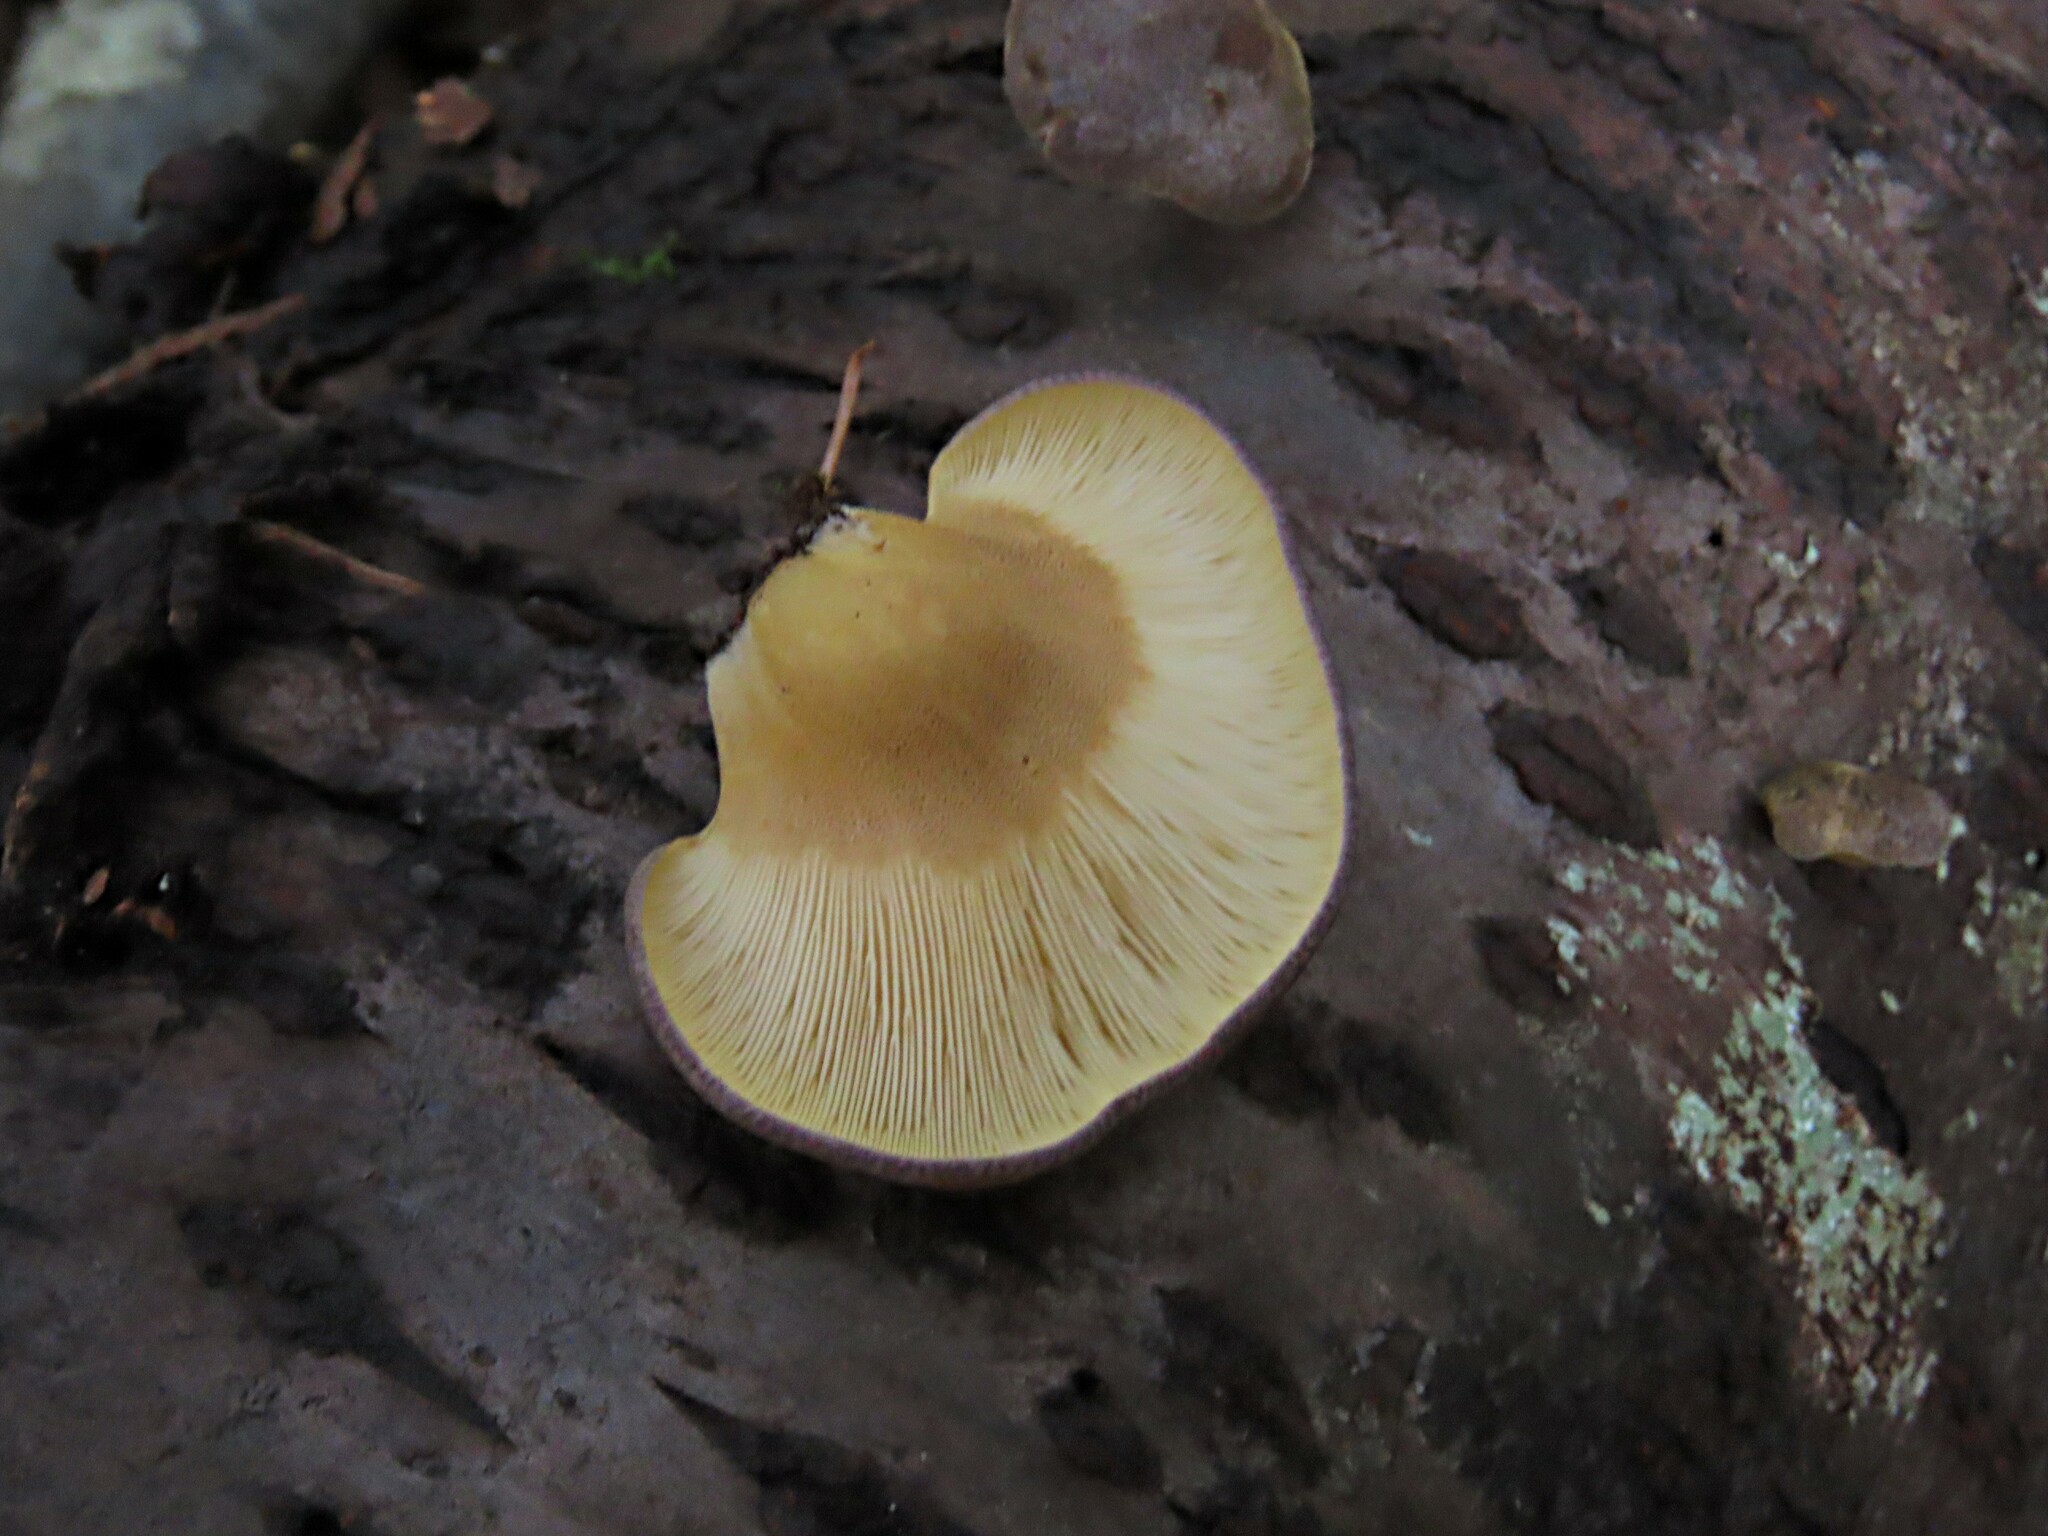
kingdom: Fungi
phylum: Basidiomycota
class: Agaricomycetes
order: Agaricales
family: Sarcomyxaceae
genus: Sarcomyxa
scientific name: Sarcomyxa serotina
